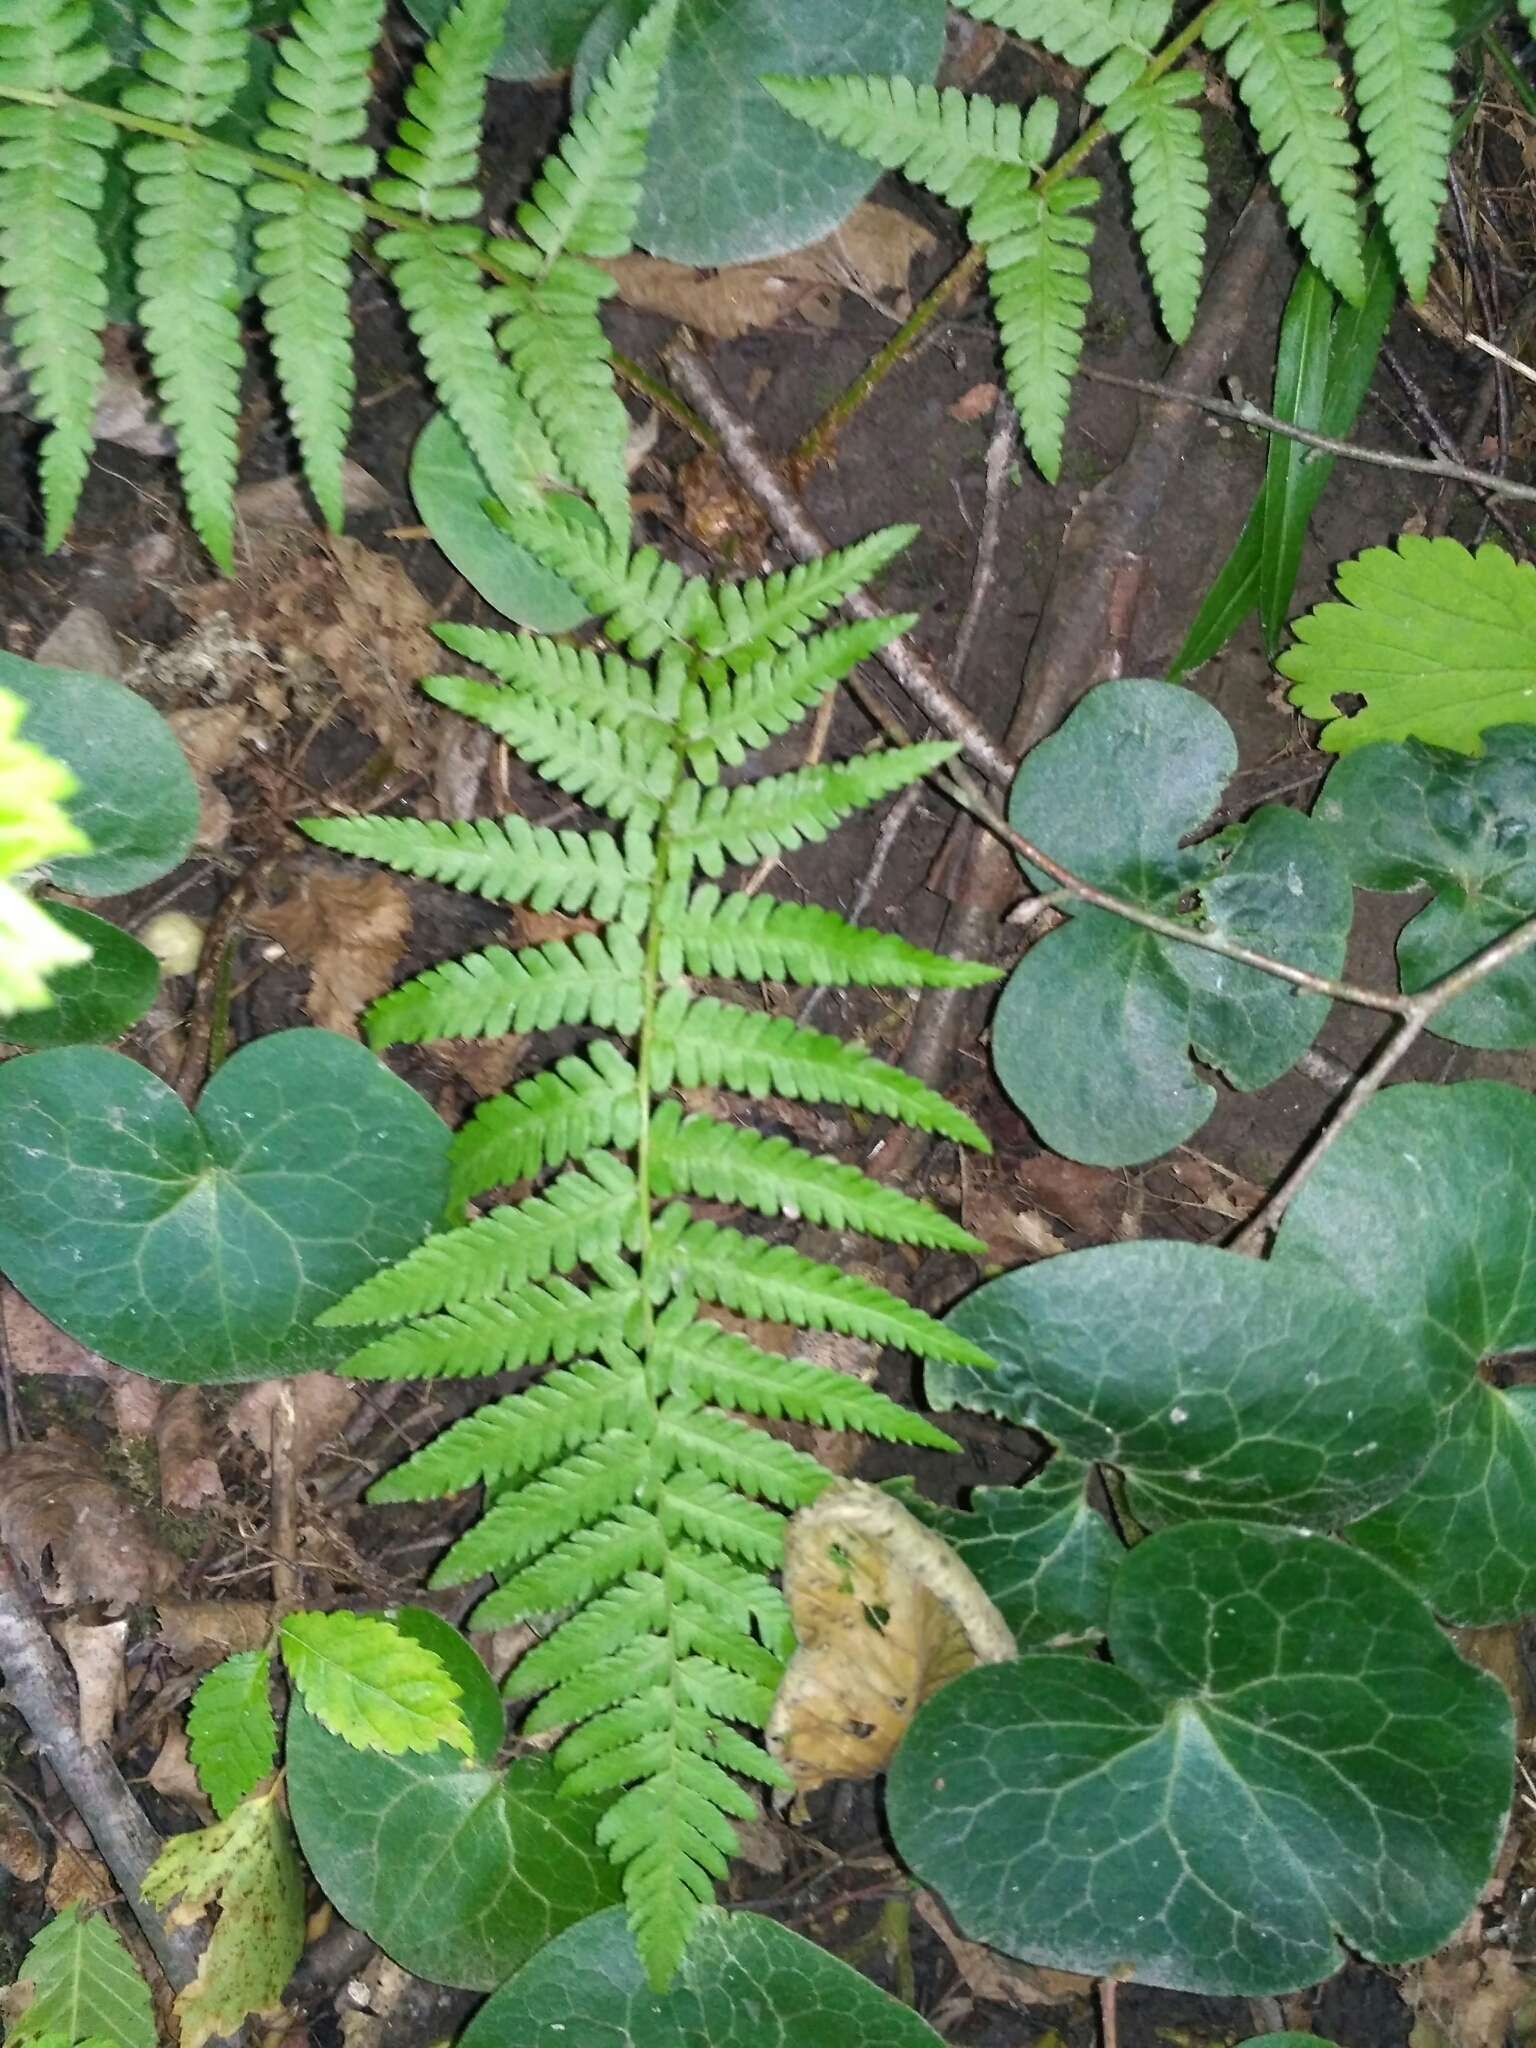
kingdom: Plantae
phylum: Tracheophyta
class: Polypodiopsida
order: Polypodiales
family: Dryopteridaceae
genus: Dryopteris
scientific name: Dryopteris filix-mas
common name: Male fern
